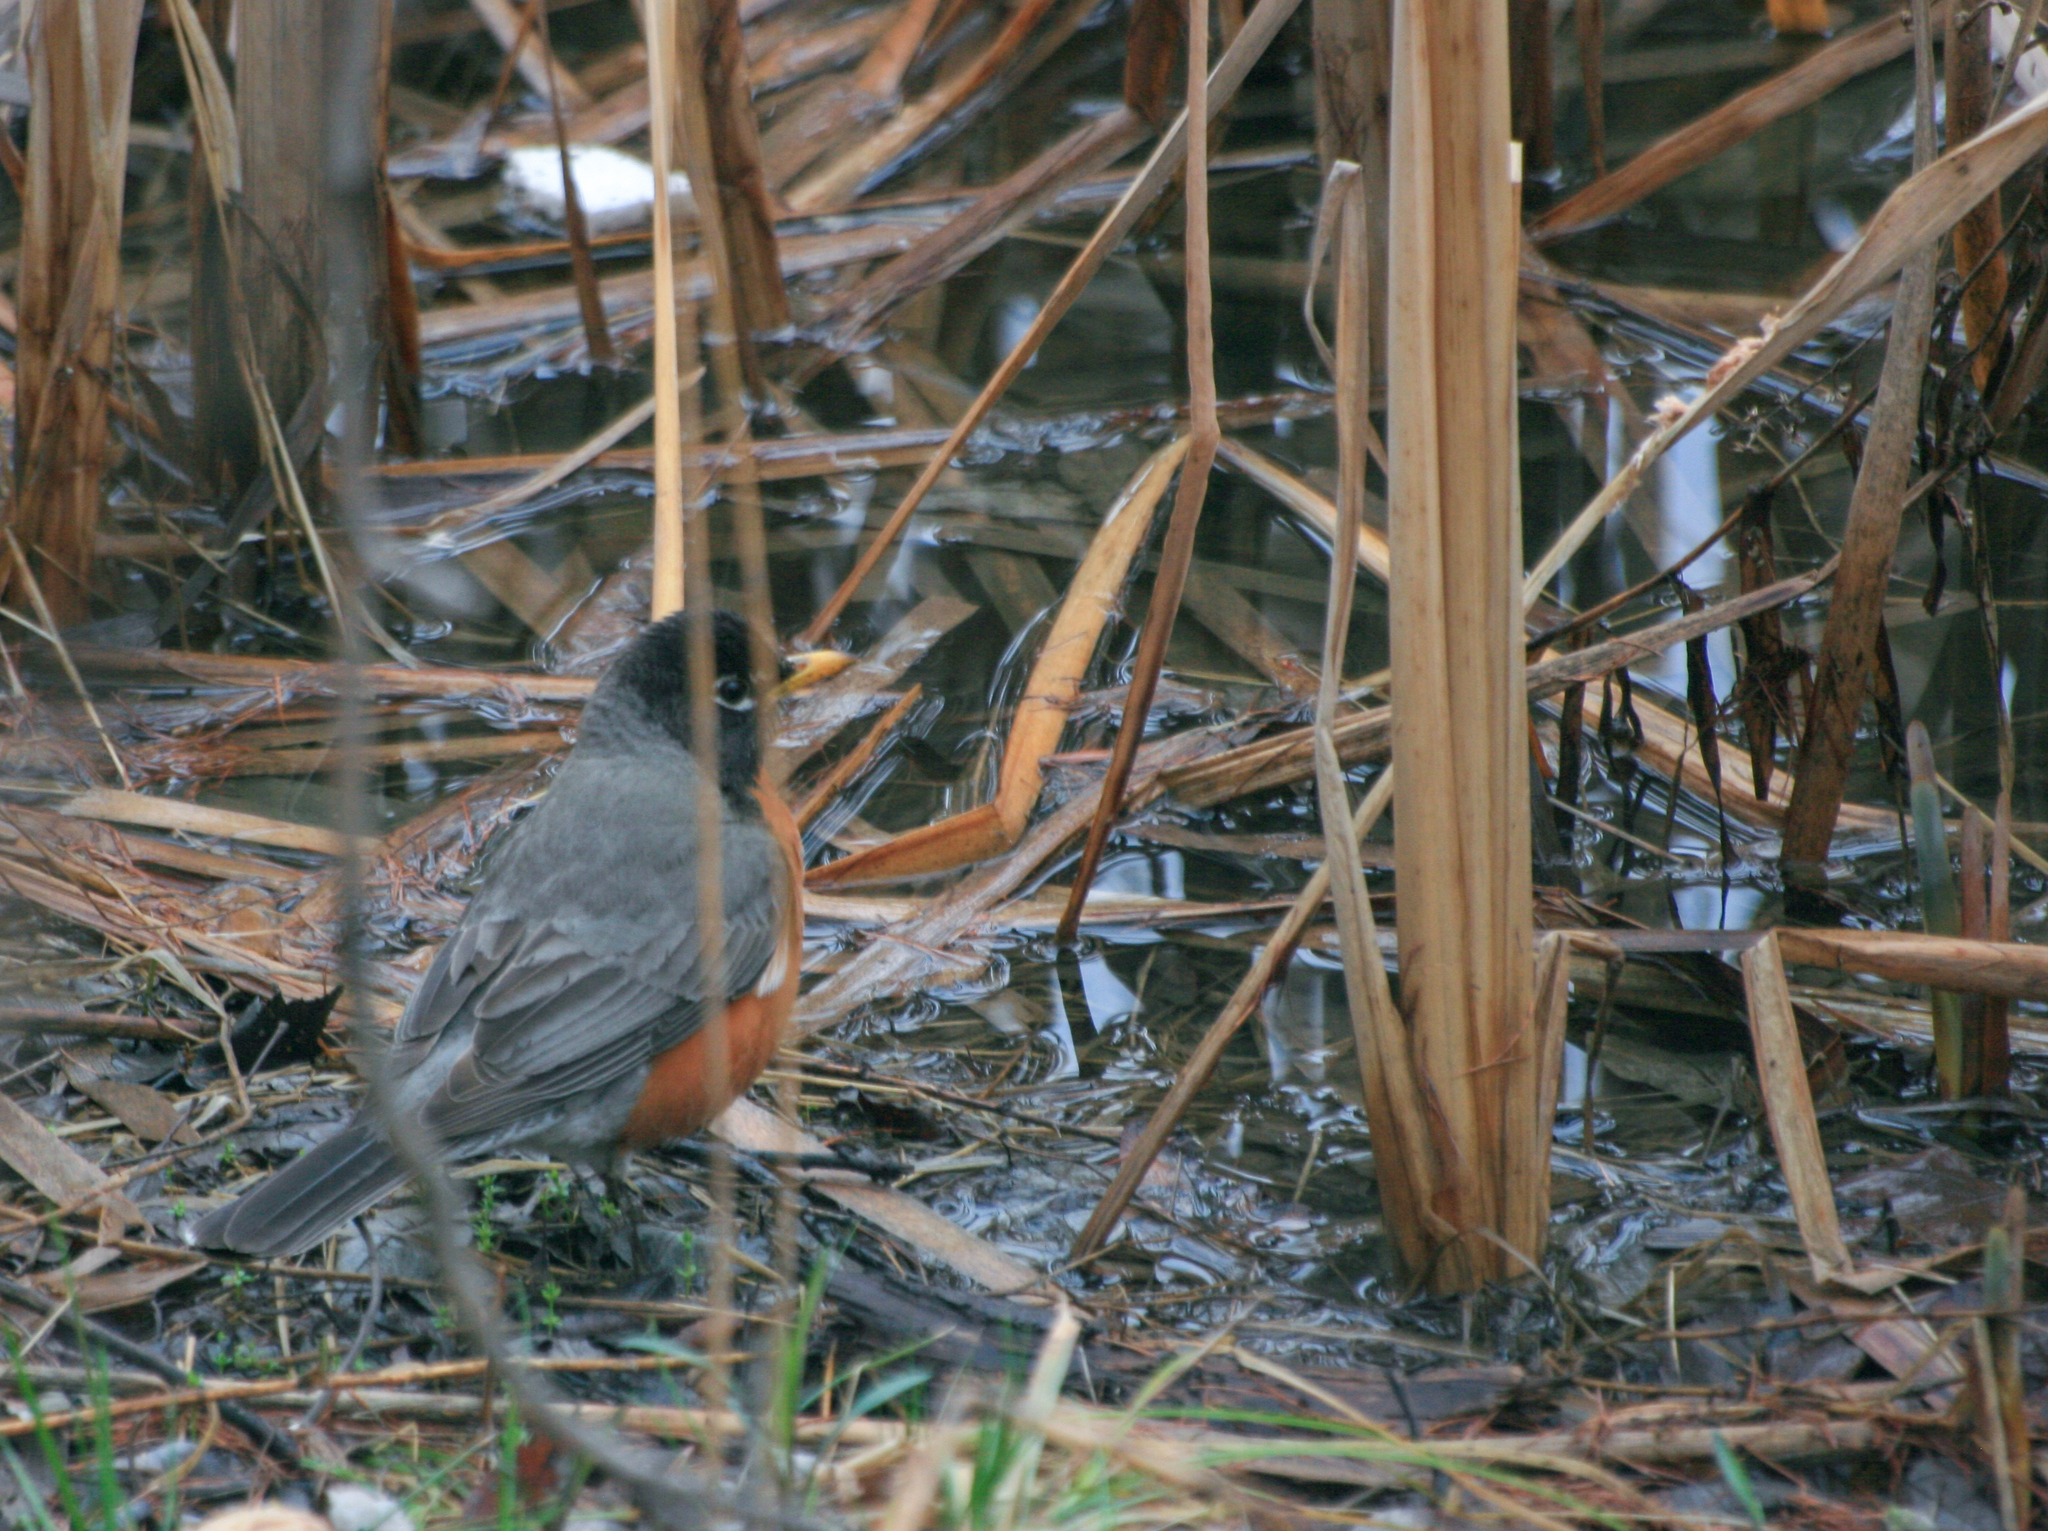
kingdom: Animalia
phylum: Chordata
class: Aves
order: Passeriformes
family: Turdidae
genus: Turdus
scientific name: Turdus migratorius
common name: American robin
